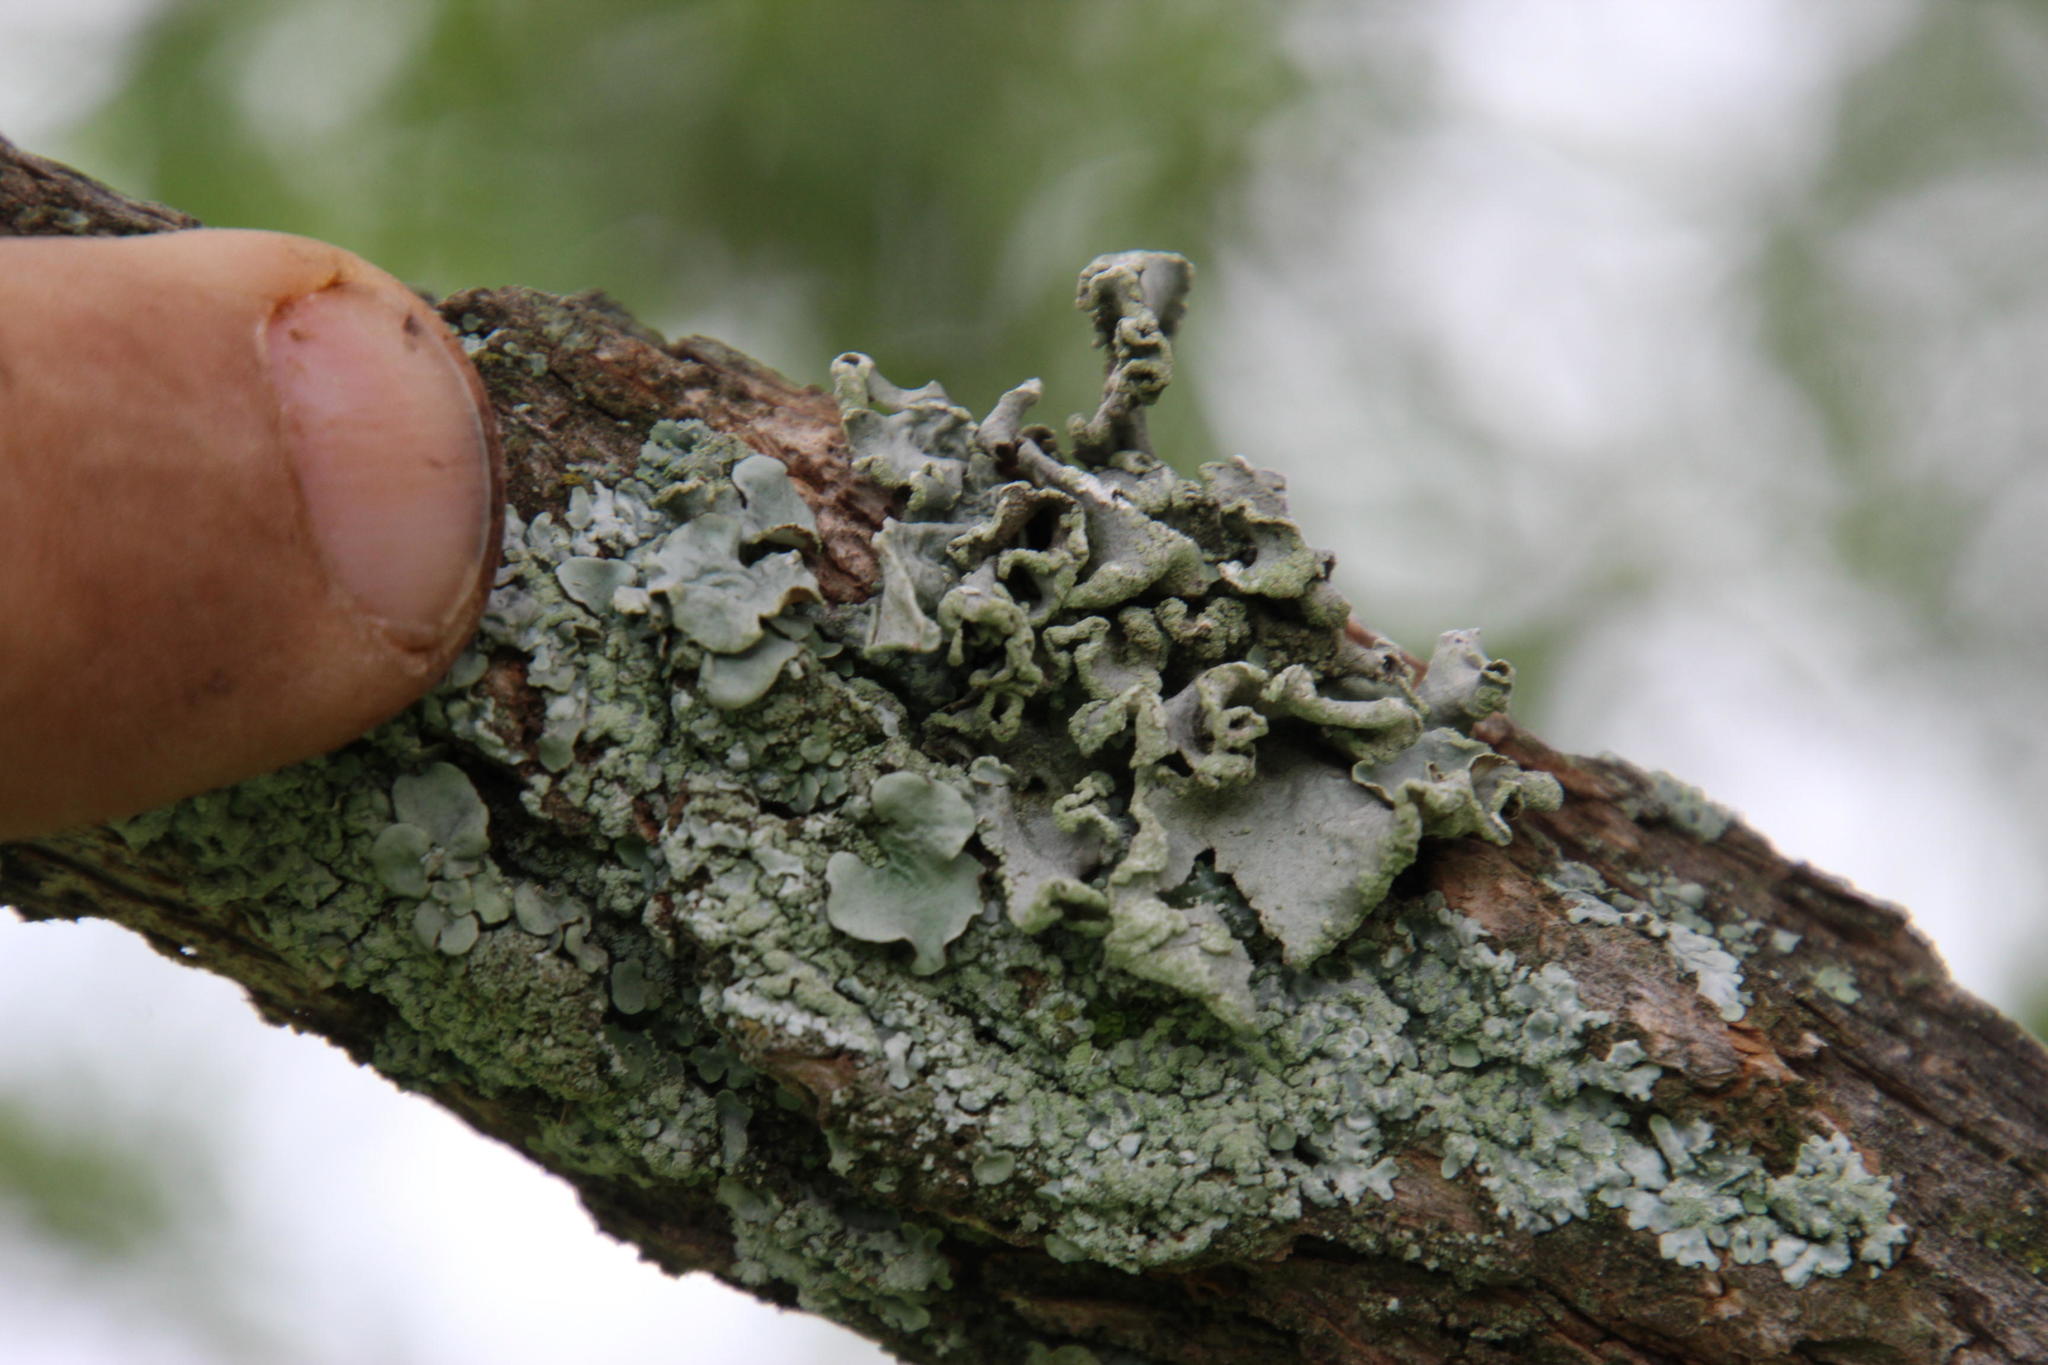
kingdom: Fungi
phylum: Ascomycota
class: Lecanoromycetes
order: Lecanorales
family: Parmeliaceae
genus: Parmotrema
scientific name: Parmotrema perlatum
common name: Black stone flower
